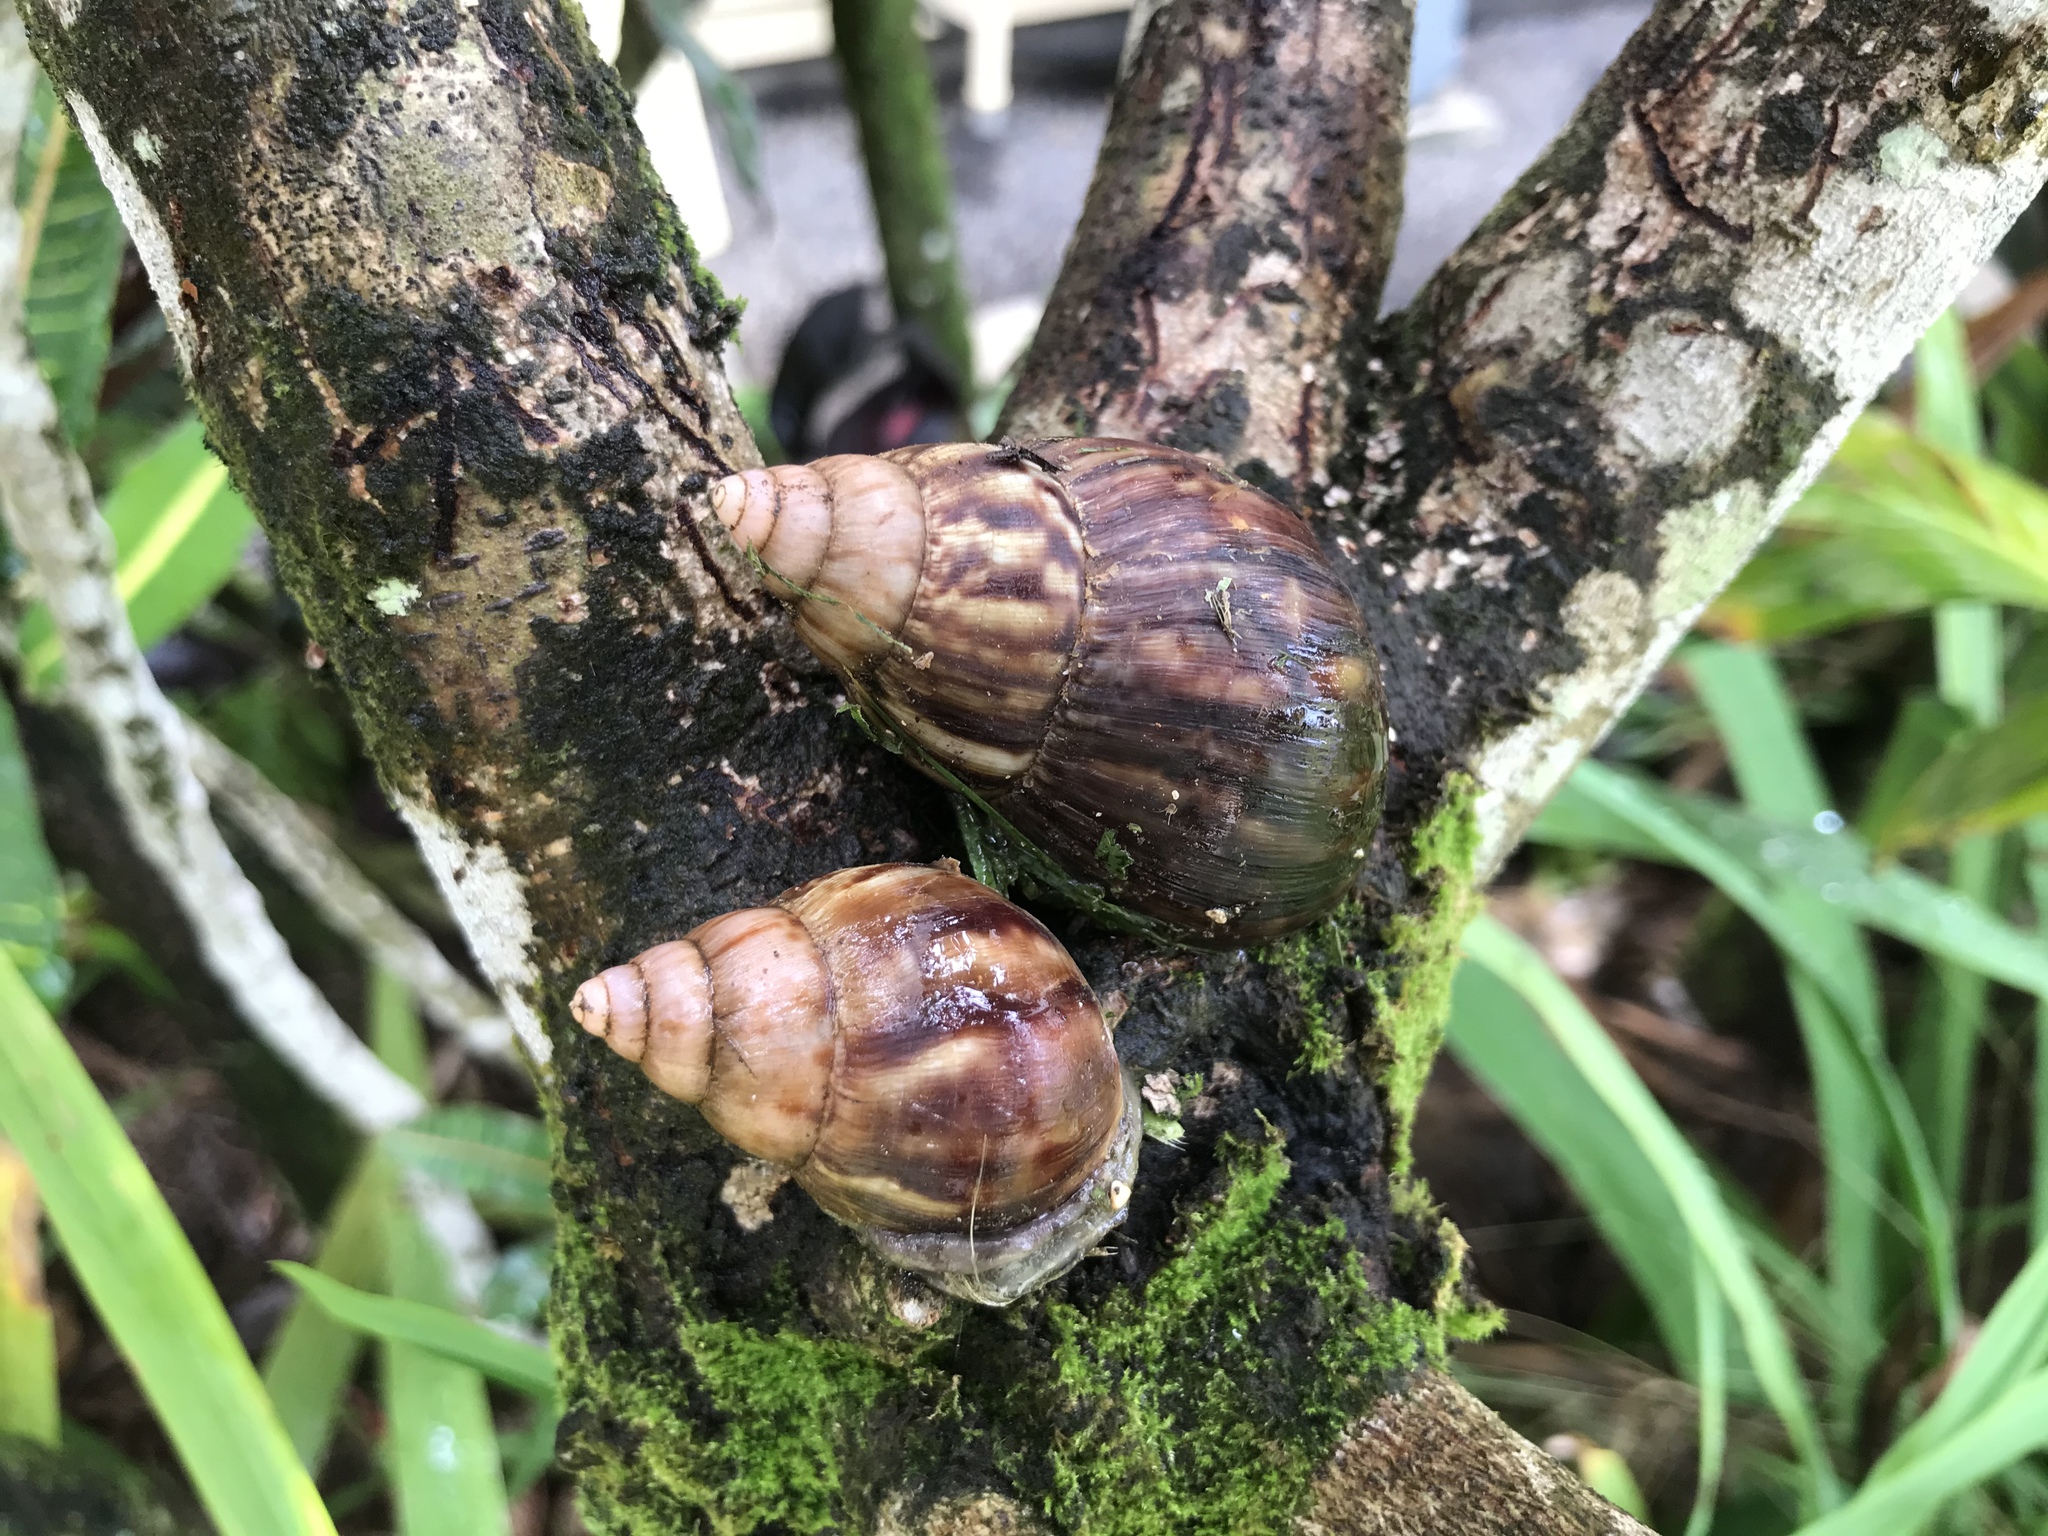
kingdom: Animalia
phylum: Mollusca
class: Gastropoda
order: Stylommatophora
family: Achatinidae
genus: Lissachatina
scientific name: Lissachatina fulica
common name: Giant african snail
